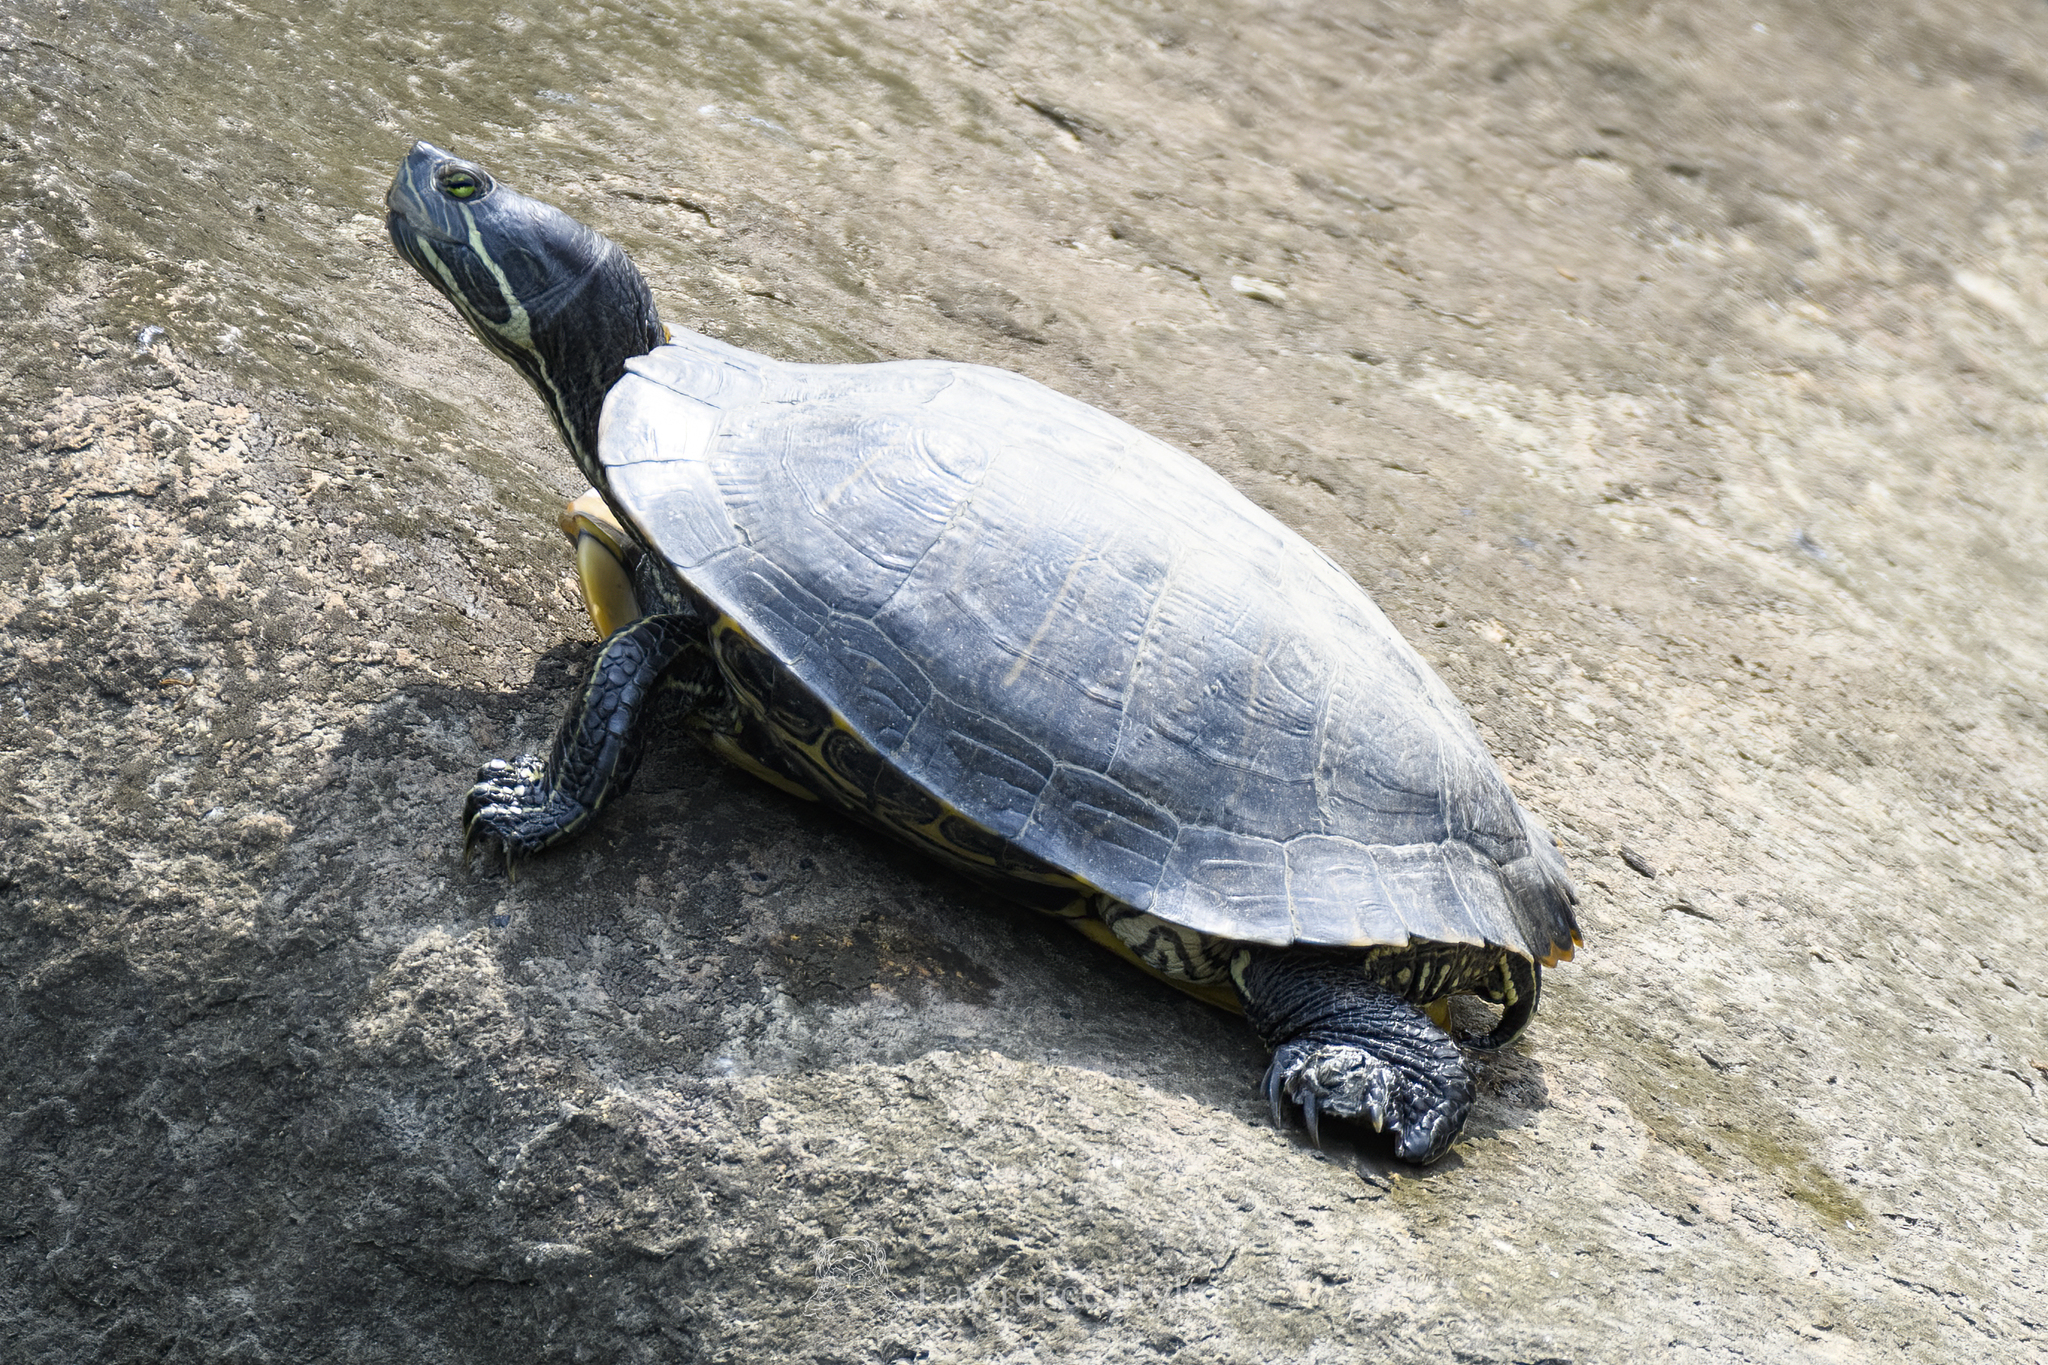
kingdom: Animalia
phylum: Chordata
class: Testudines
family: Emydidae
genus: Trachemys
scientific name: Trachemys scripta
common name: Slider
